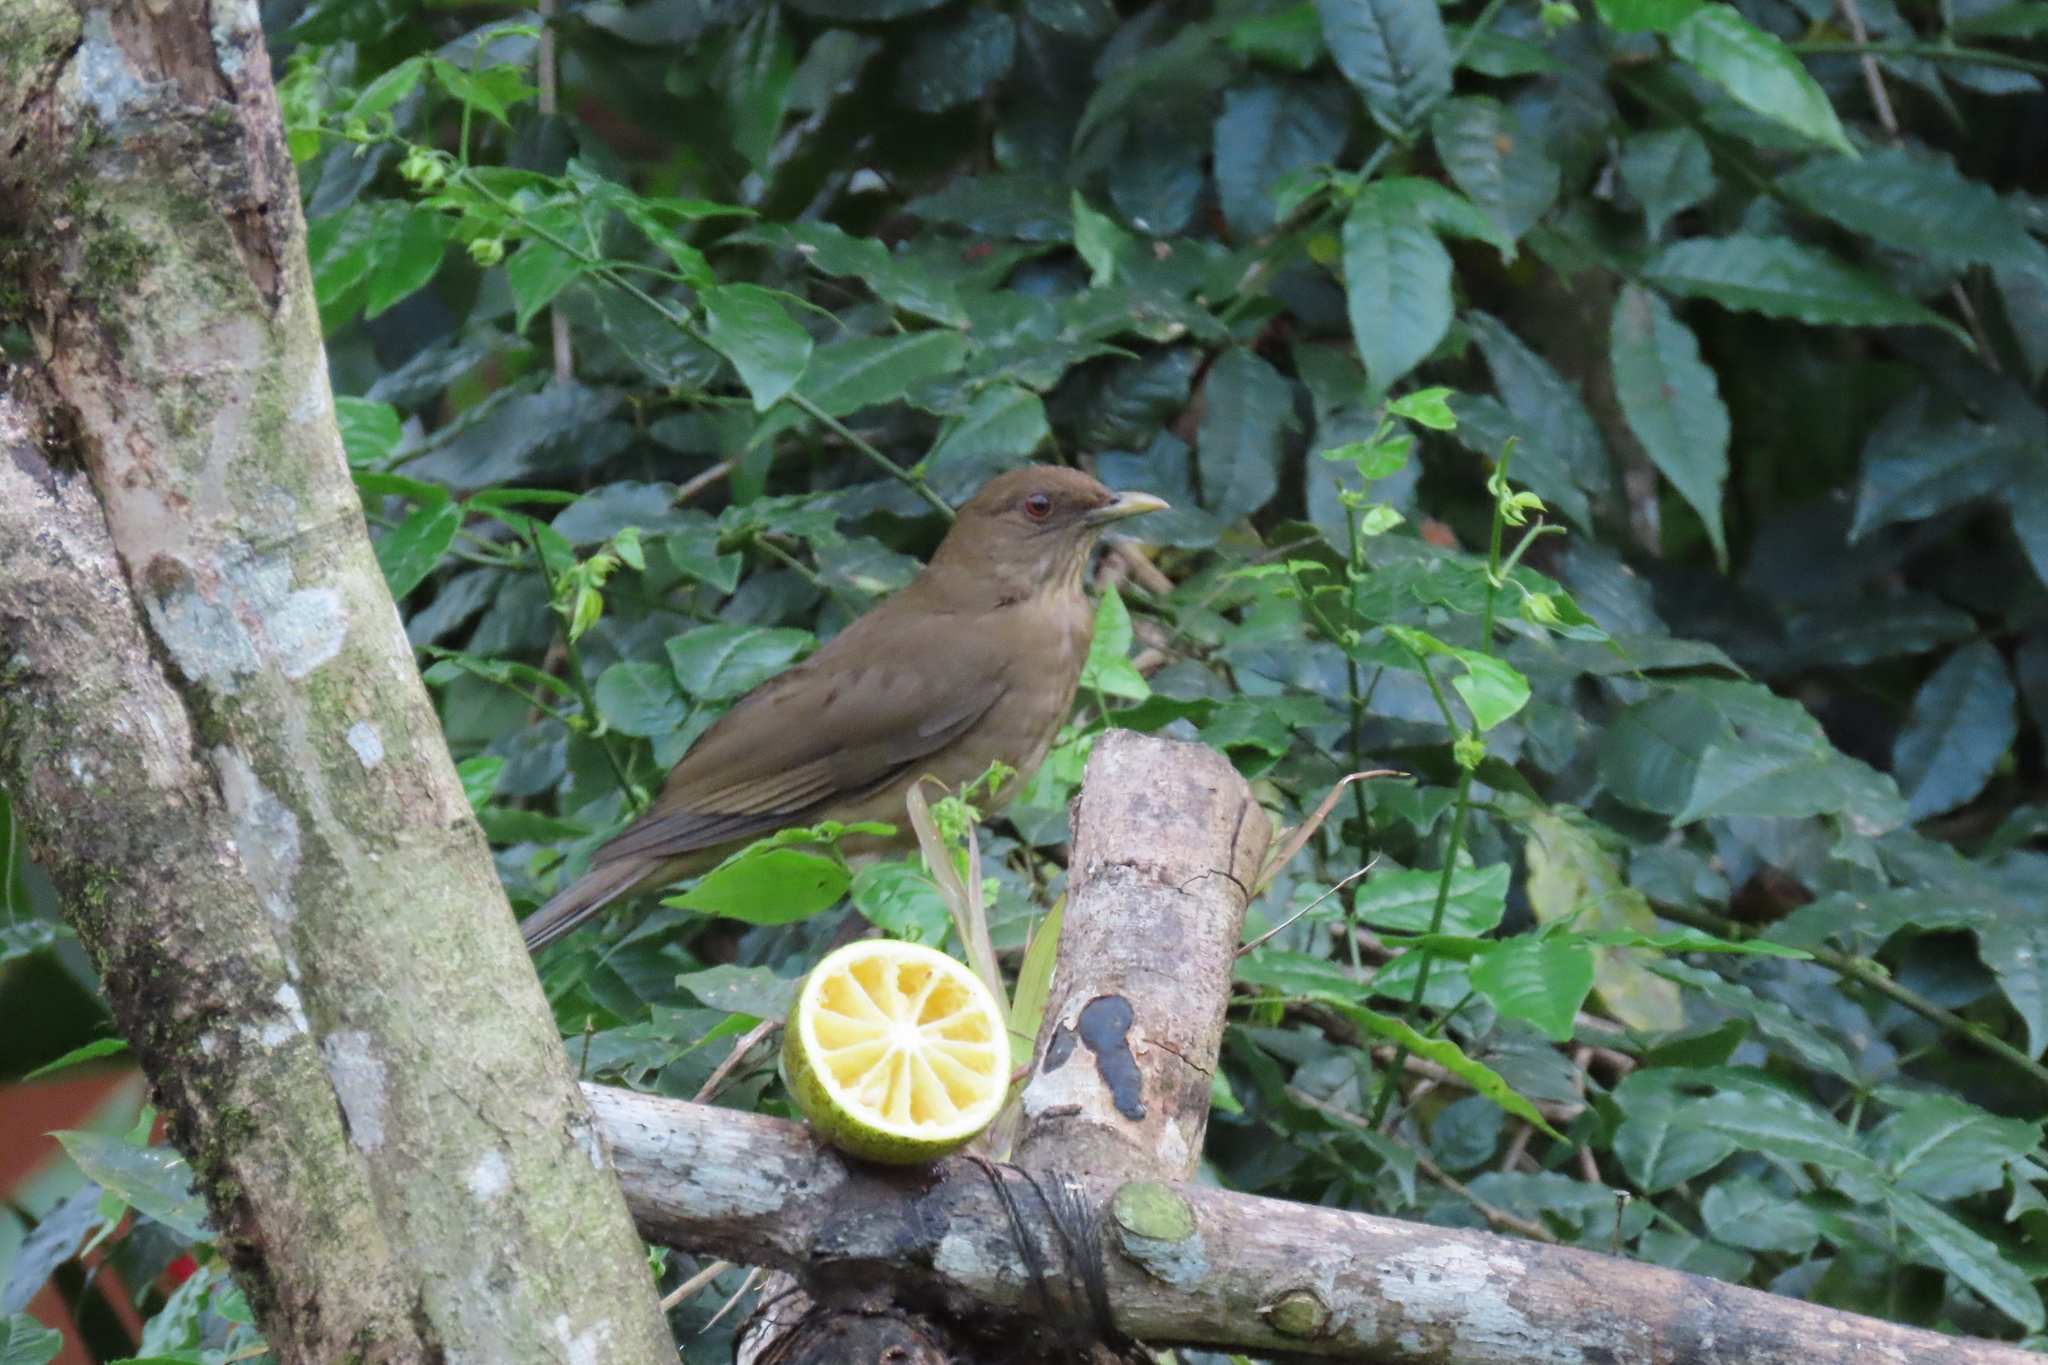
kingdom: Animalia
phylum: Chordata
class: Aves
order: Passeriformes
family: Turdidae
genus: Turdus
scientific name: Turdus grayi
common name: Clay-colored thrush
